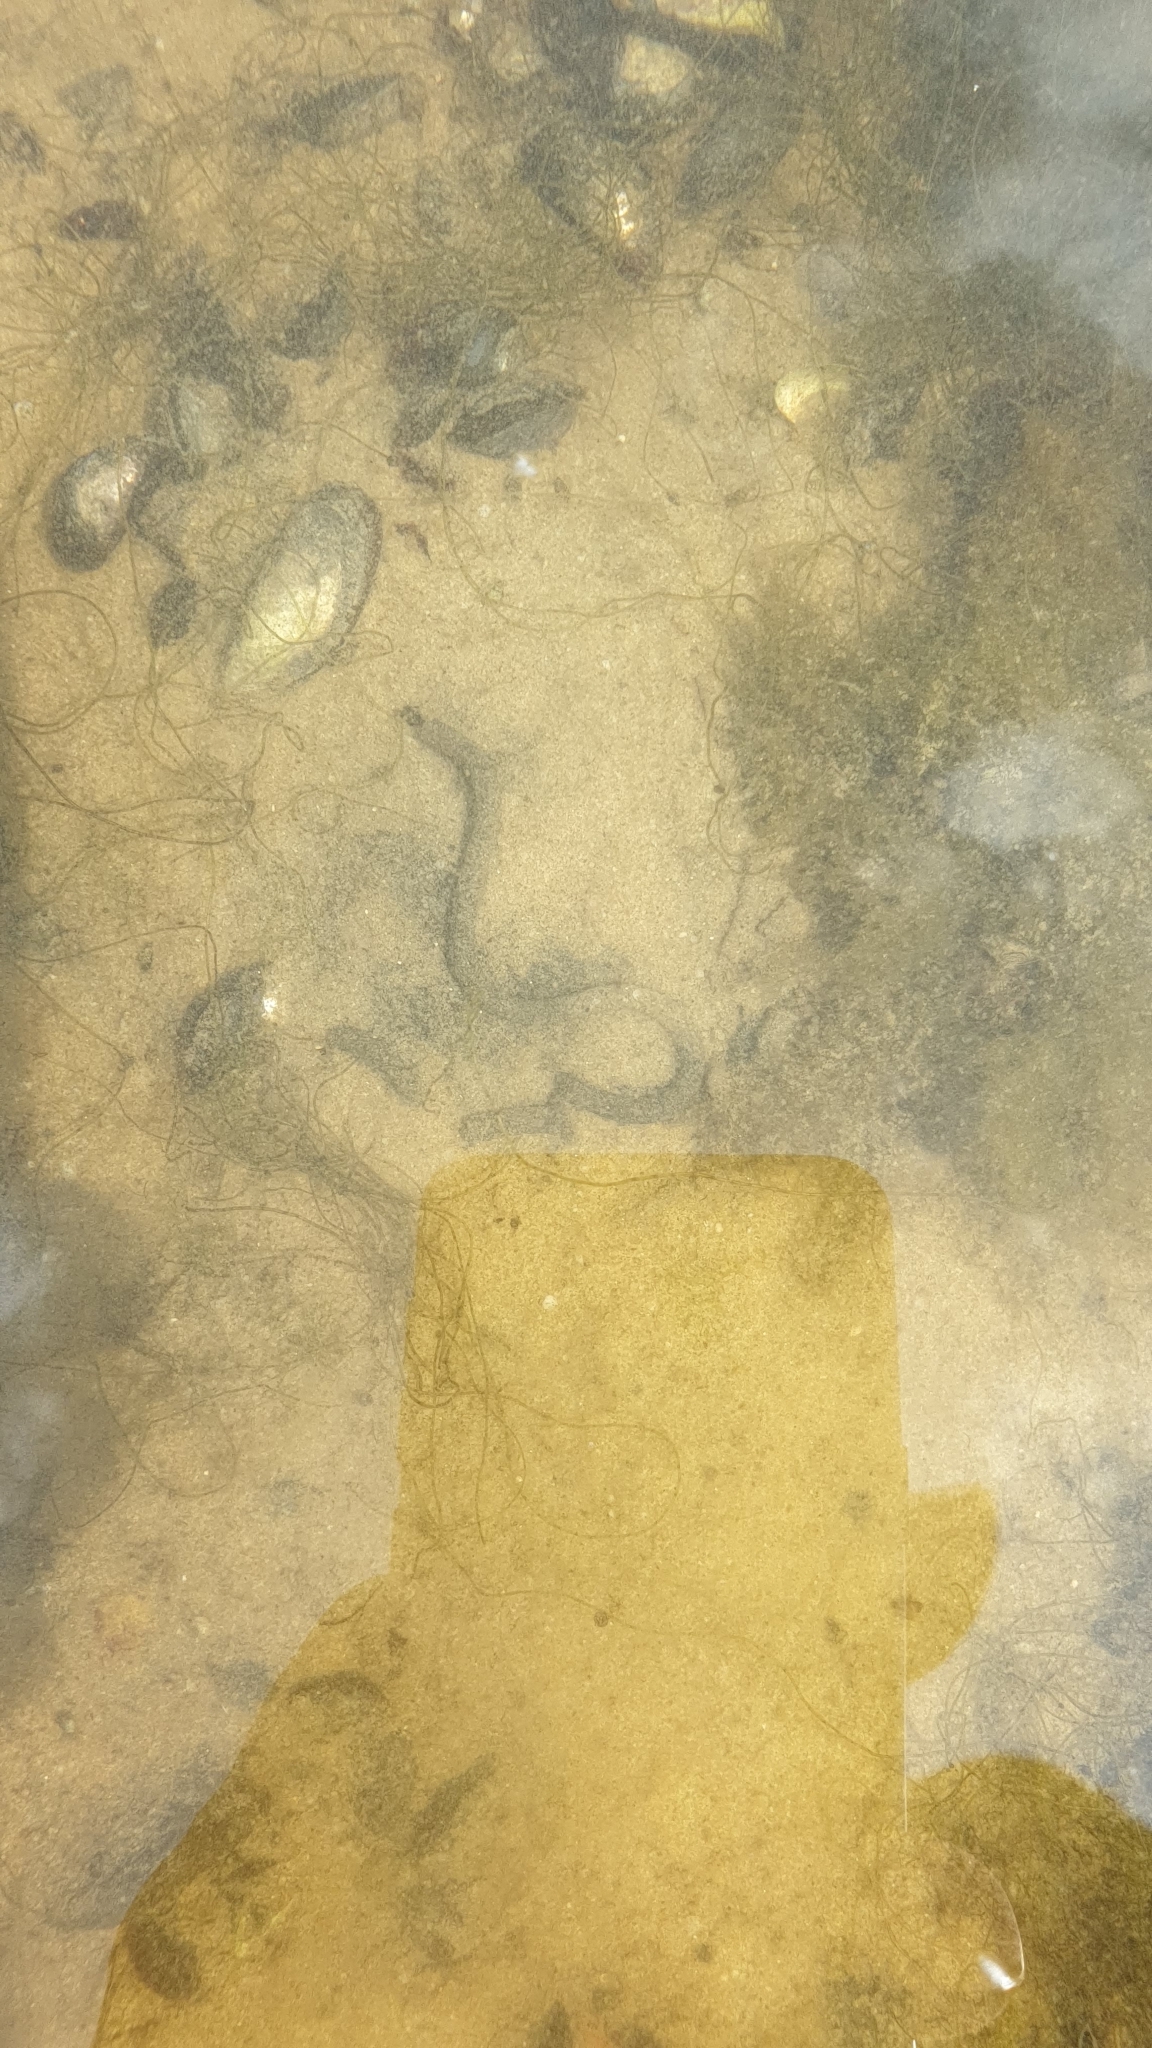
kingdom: Animalia
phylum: Annelida
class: Polychaeta
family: Arenicolidae
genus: Arenicola
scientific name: Arenicola marina
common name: Blow lugworm
